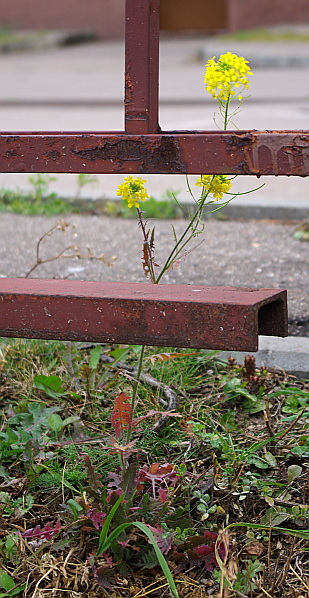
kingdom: Plantae
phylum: Tracheophyta
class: Magnoliopsida
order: Brassicales
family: Brassicaceae
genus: Sisymbrium
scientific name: Sisymbrium loeselii
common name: False london-rocket
